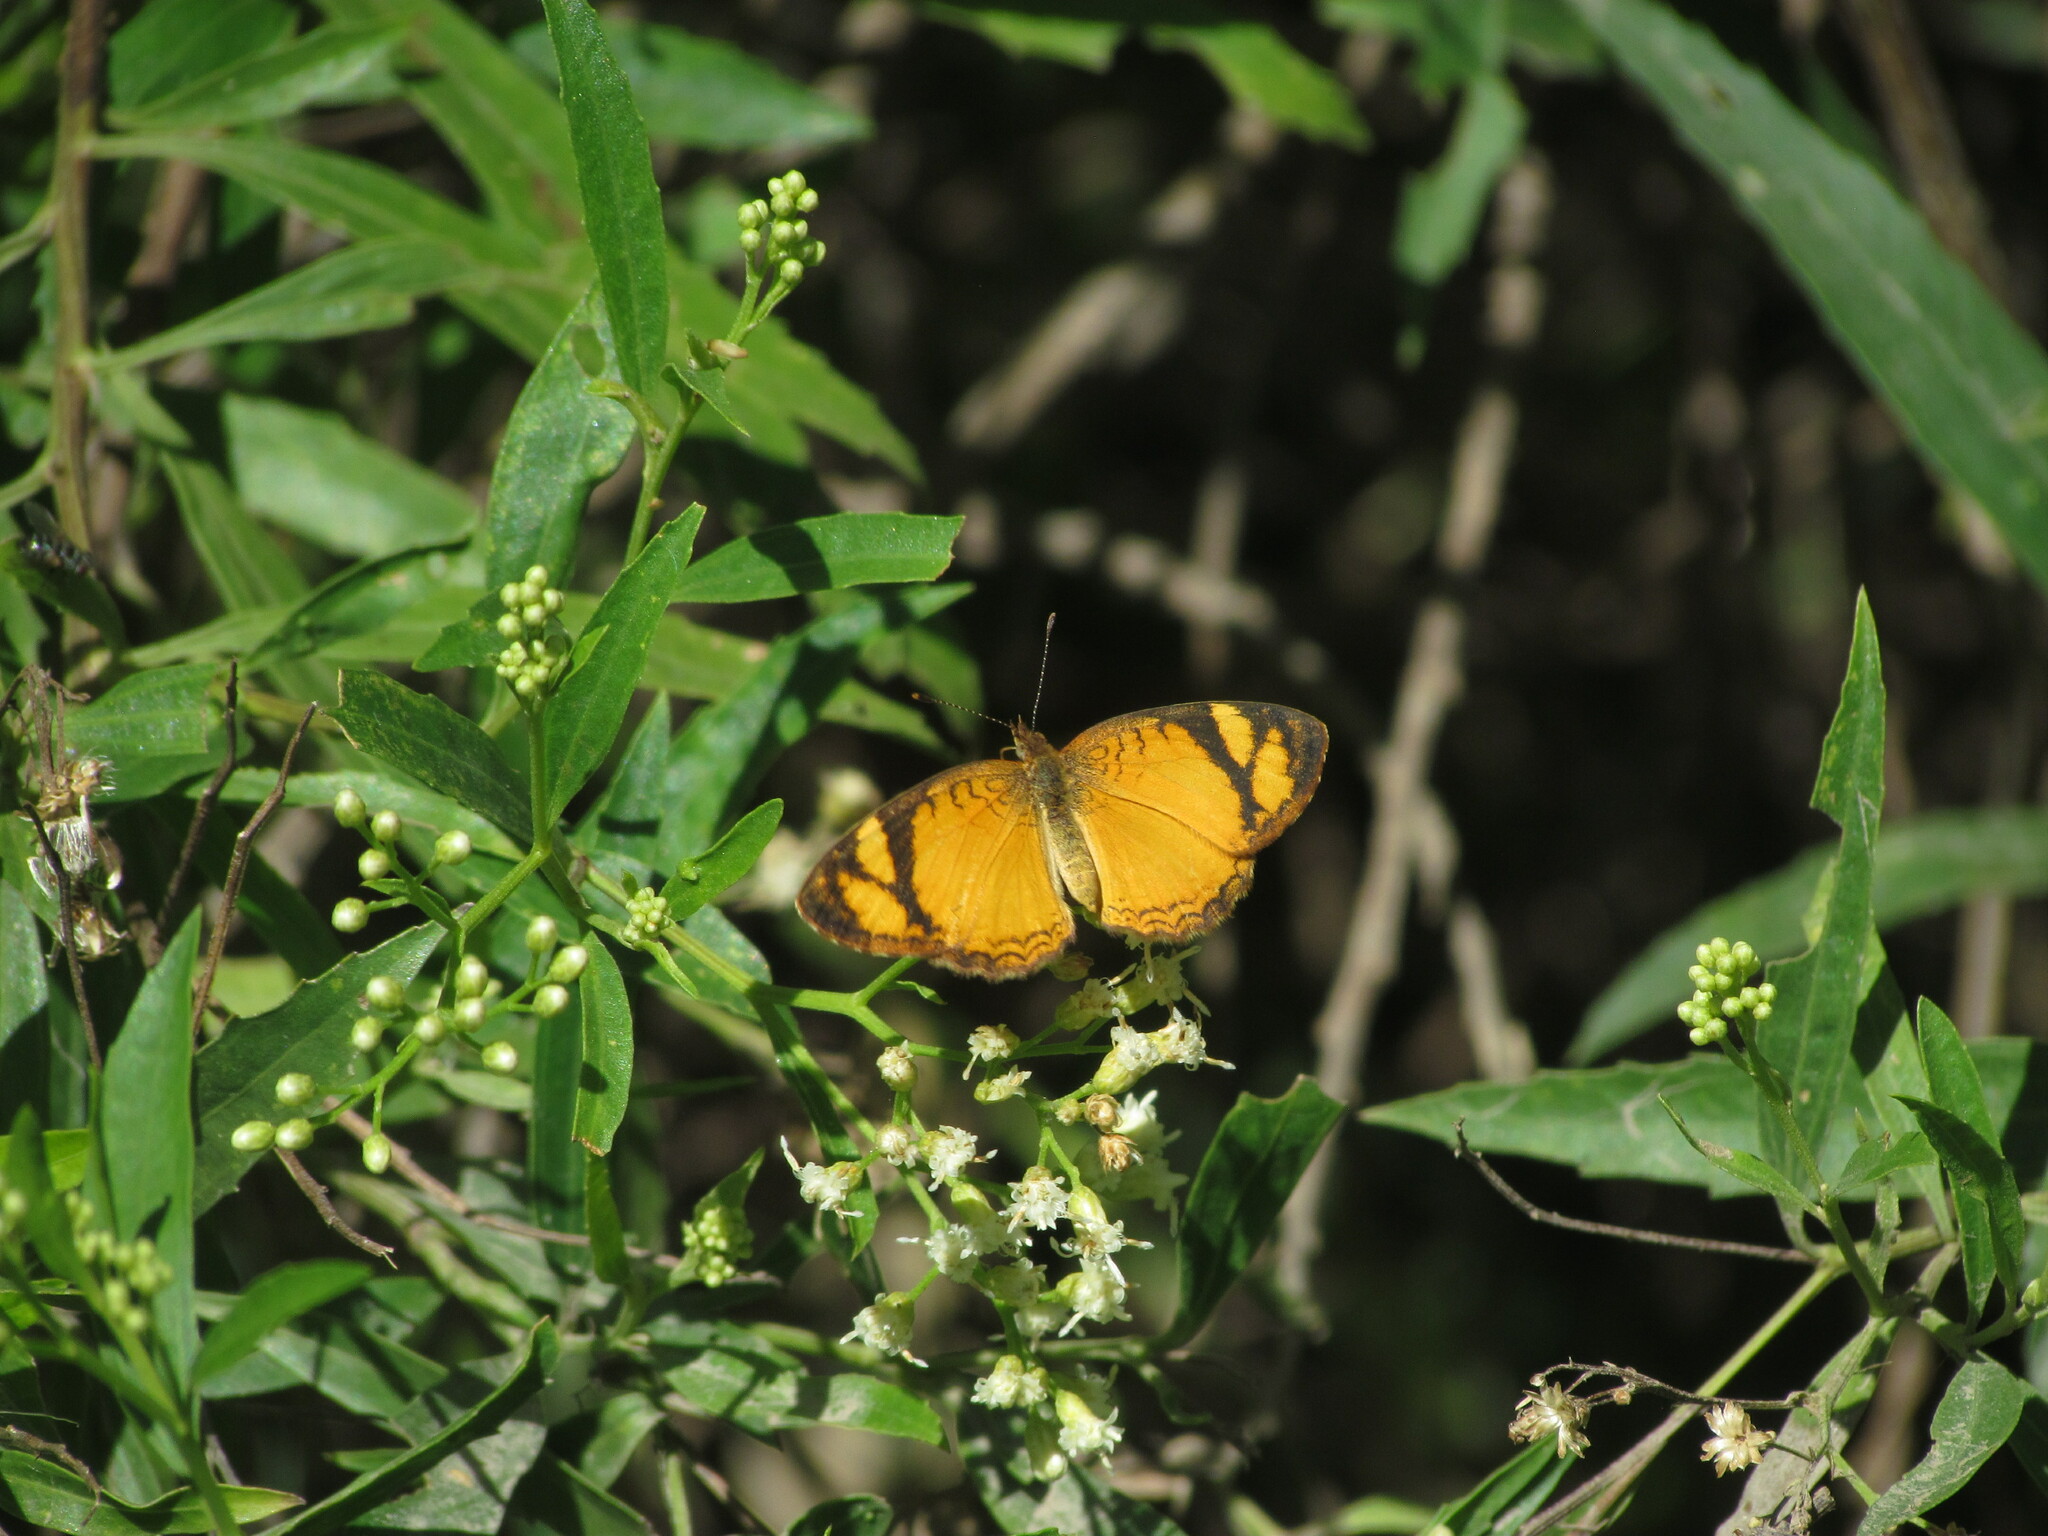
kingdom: Animalia
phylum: Arthropoda
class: Insecta
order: Lepidoptera
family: Nymphalidae
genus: Tegosa
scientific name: Tegosa claudina
